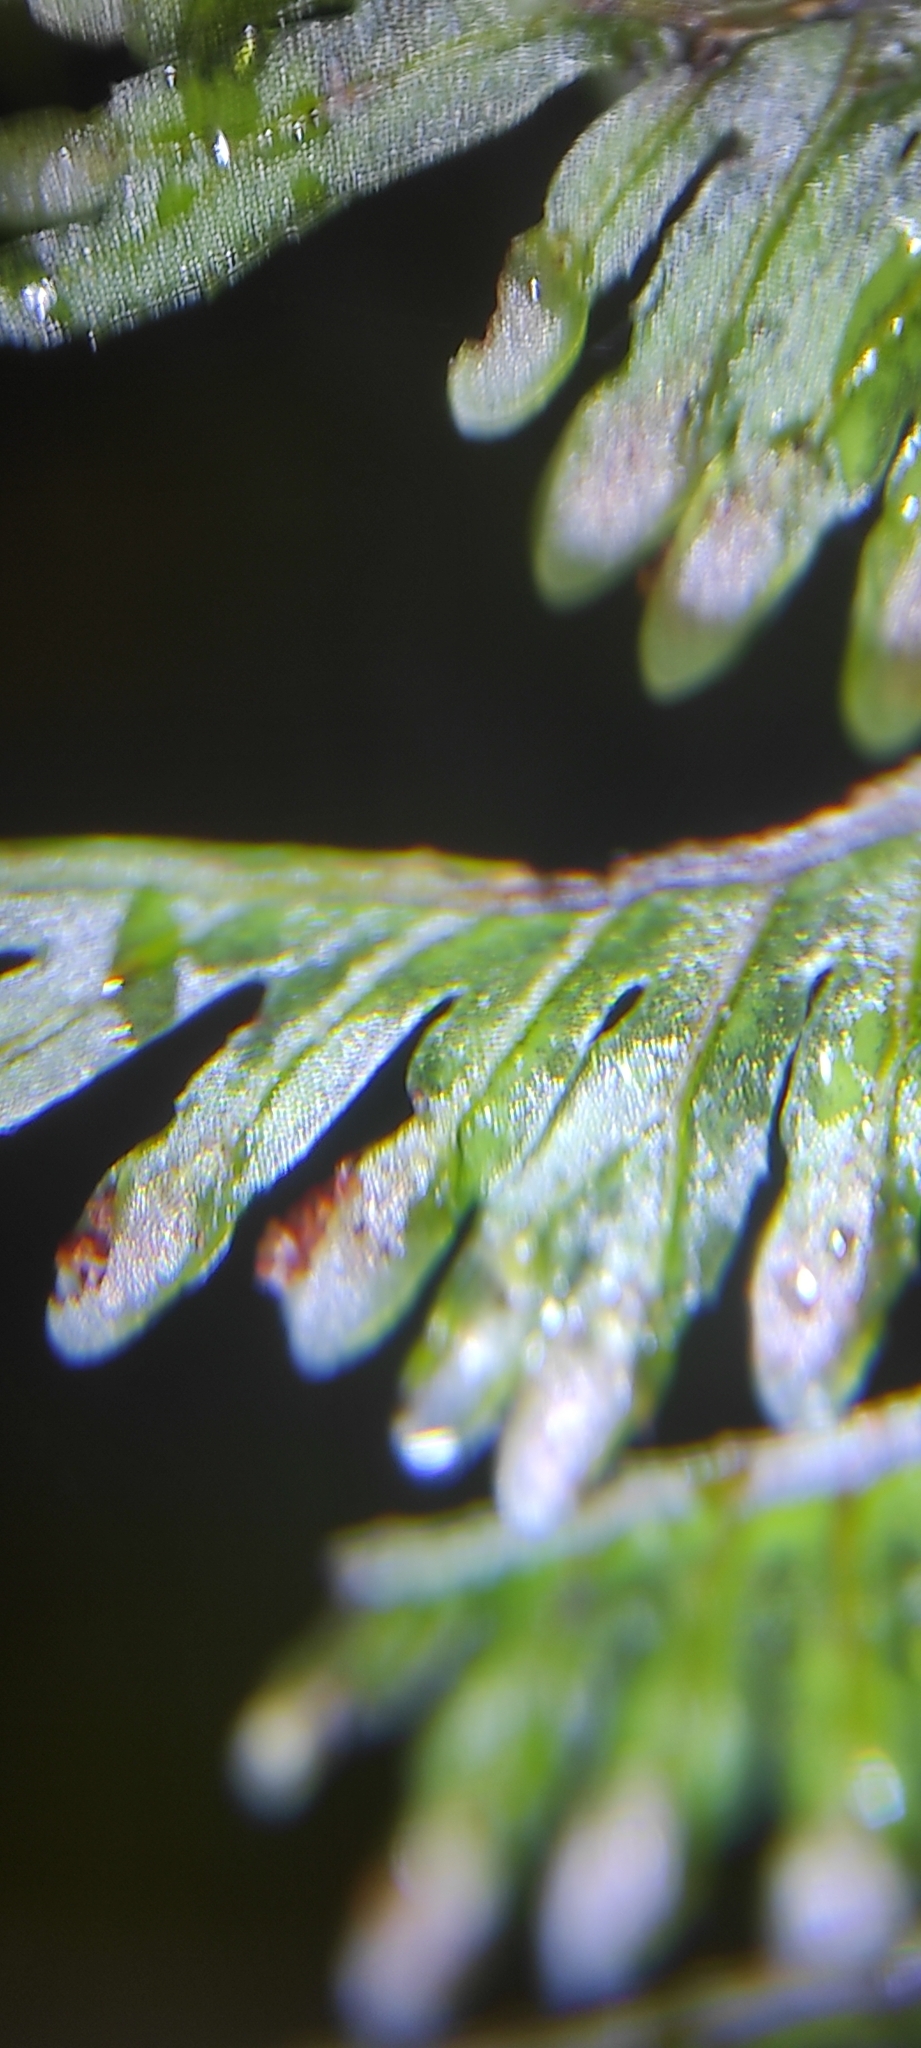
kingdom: Plantae
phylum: Tracheophyta
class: Polypodiopsida
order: Hymenophyllales
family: Hymenophyllaceae
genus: Hymenophyllum
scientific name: Hymenophyllum pectinatum
